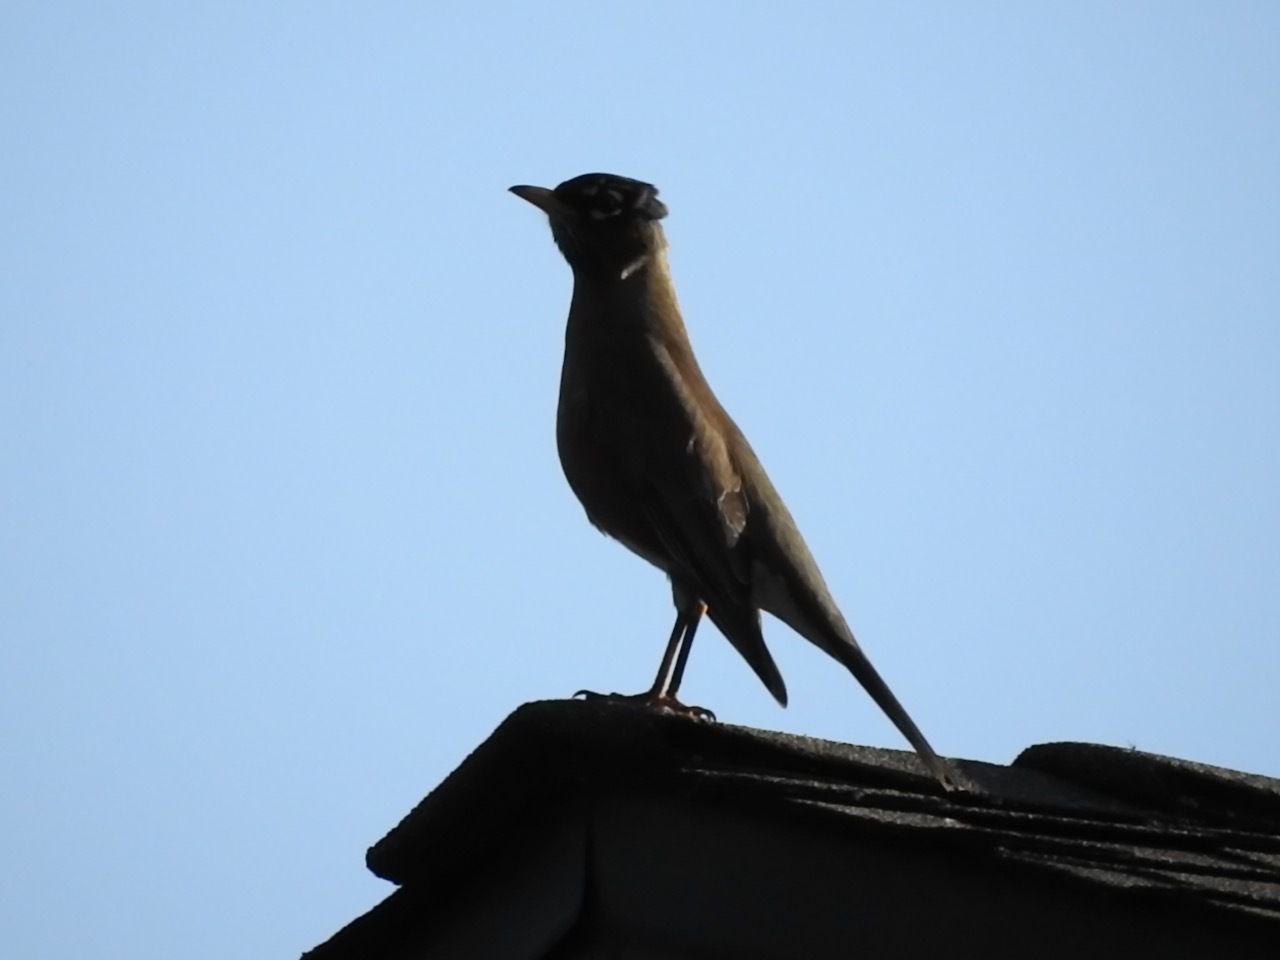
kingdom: Animalia
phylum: Chordata
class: Aves
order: Passeriformes
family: Turdidae
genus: Turdus
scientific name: Turdus migratorius
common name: American robin
